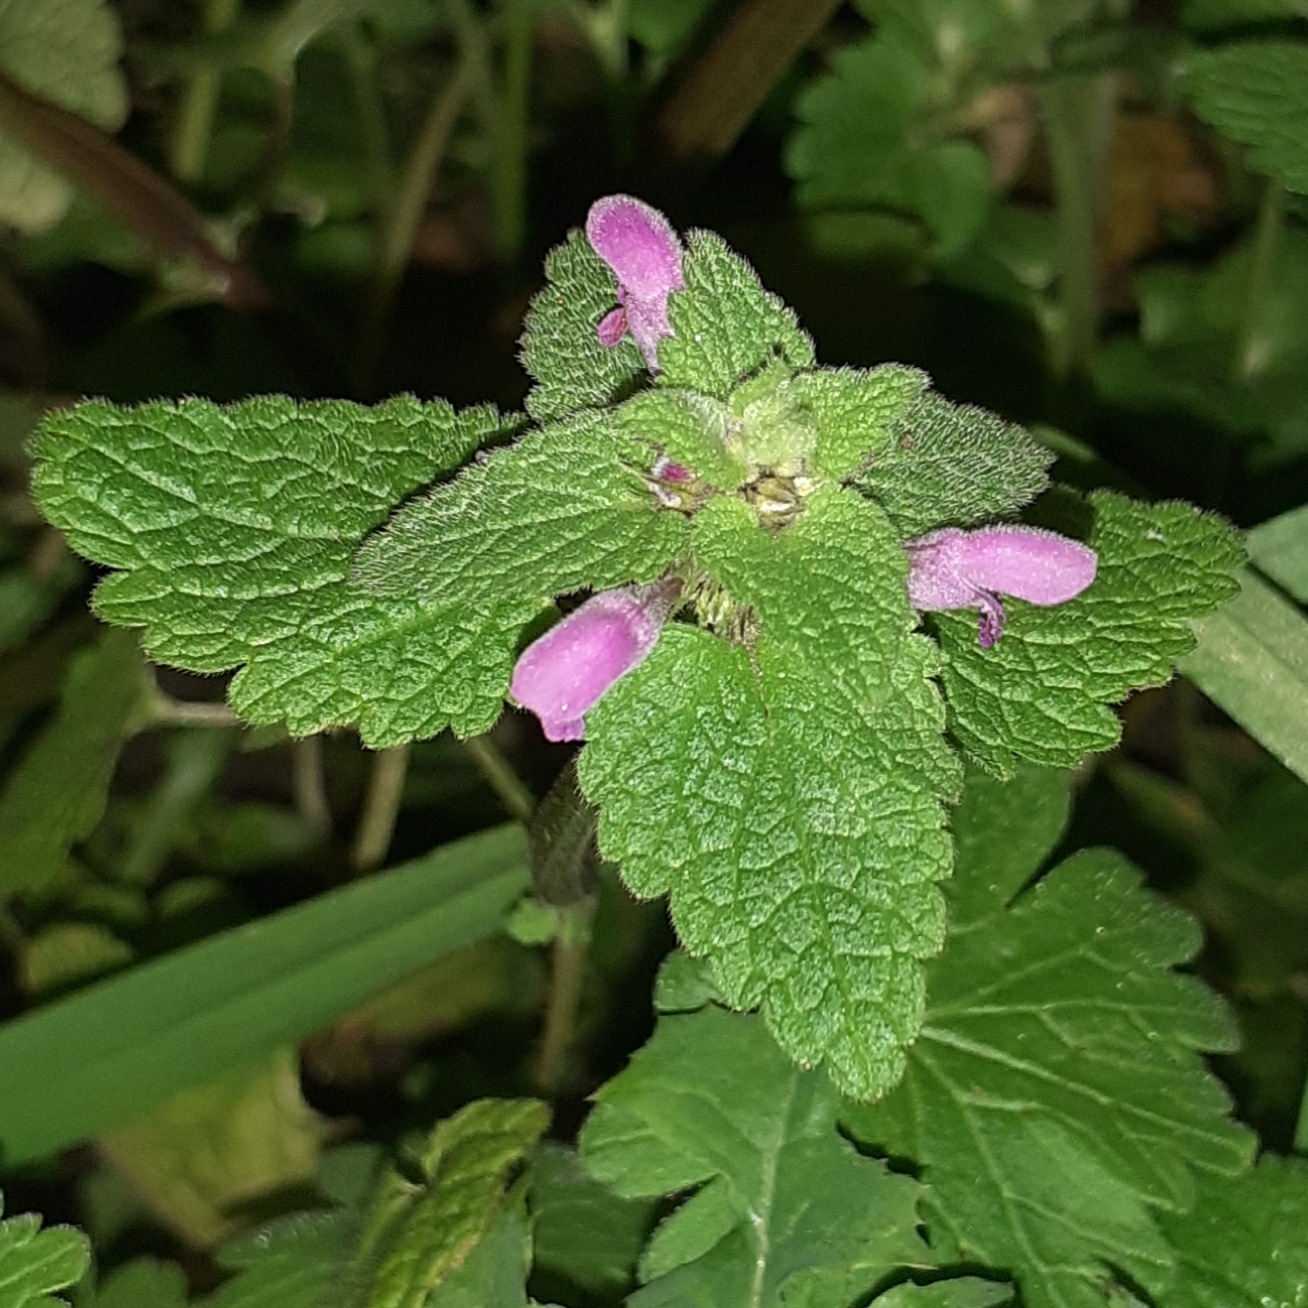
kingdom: Plantae
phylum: Tracheophyta
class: Magnoliopsida
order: Lamiales
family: Lamiaceae
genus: Lamium
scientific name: Lamium purpureum
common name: Red dead-nettle
